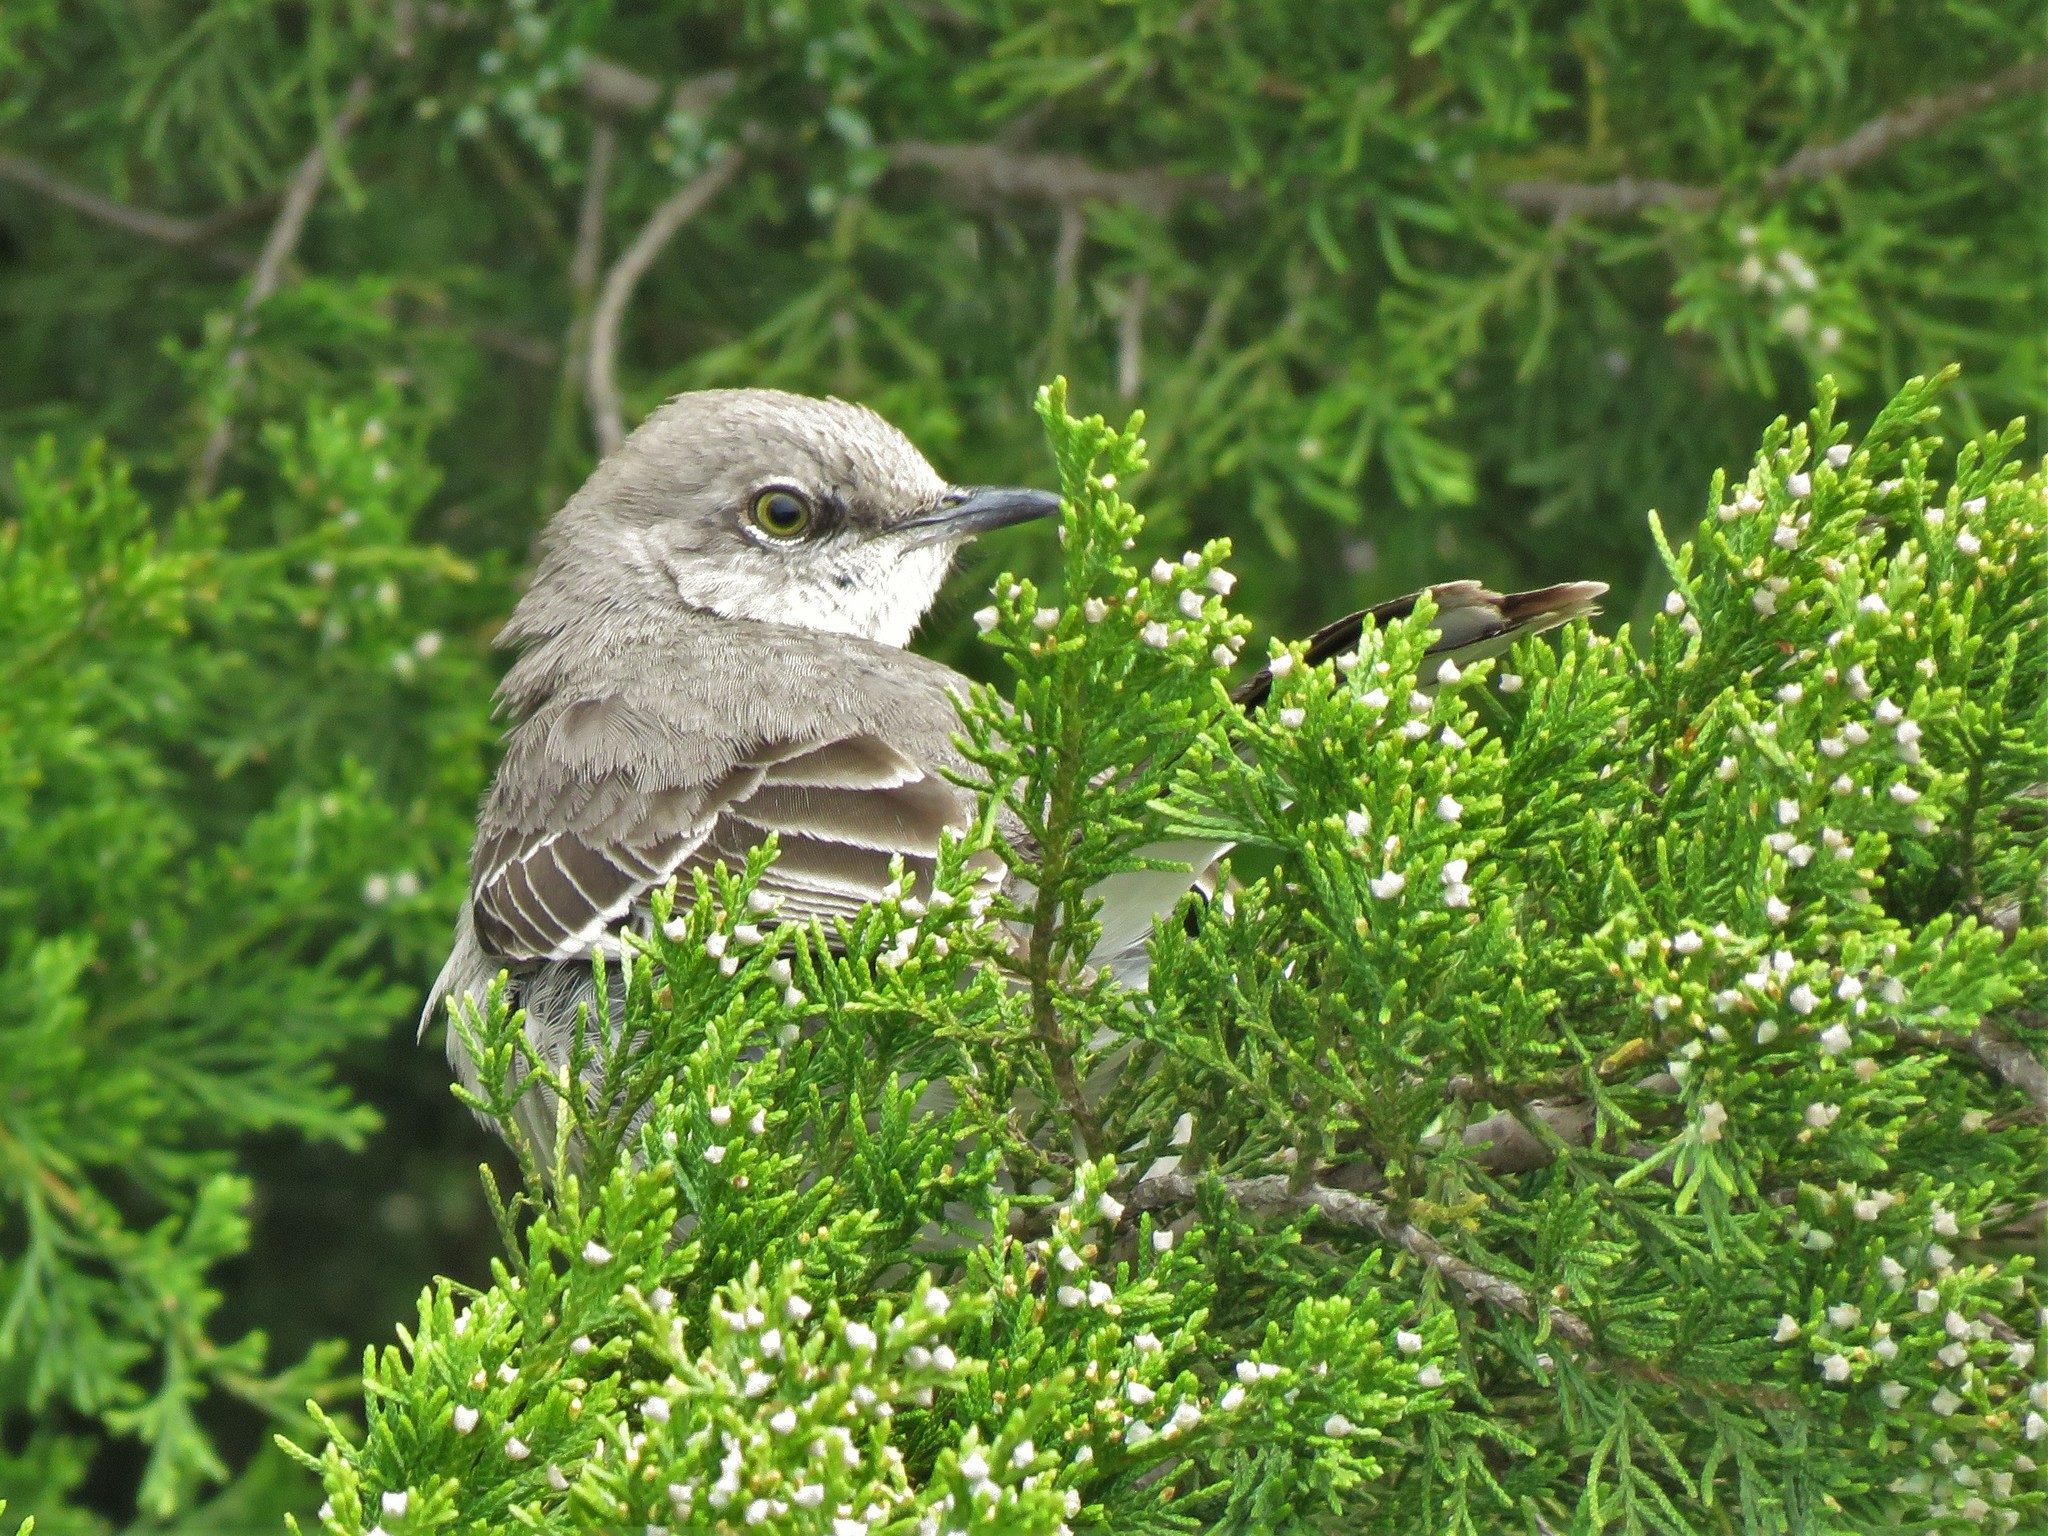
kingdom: Animalia
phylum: Chordata
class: Aves
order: Passeriformes
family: Mimidae
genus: Mimus
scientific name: Mimus polyglottos
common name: Northern mockingbird
